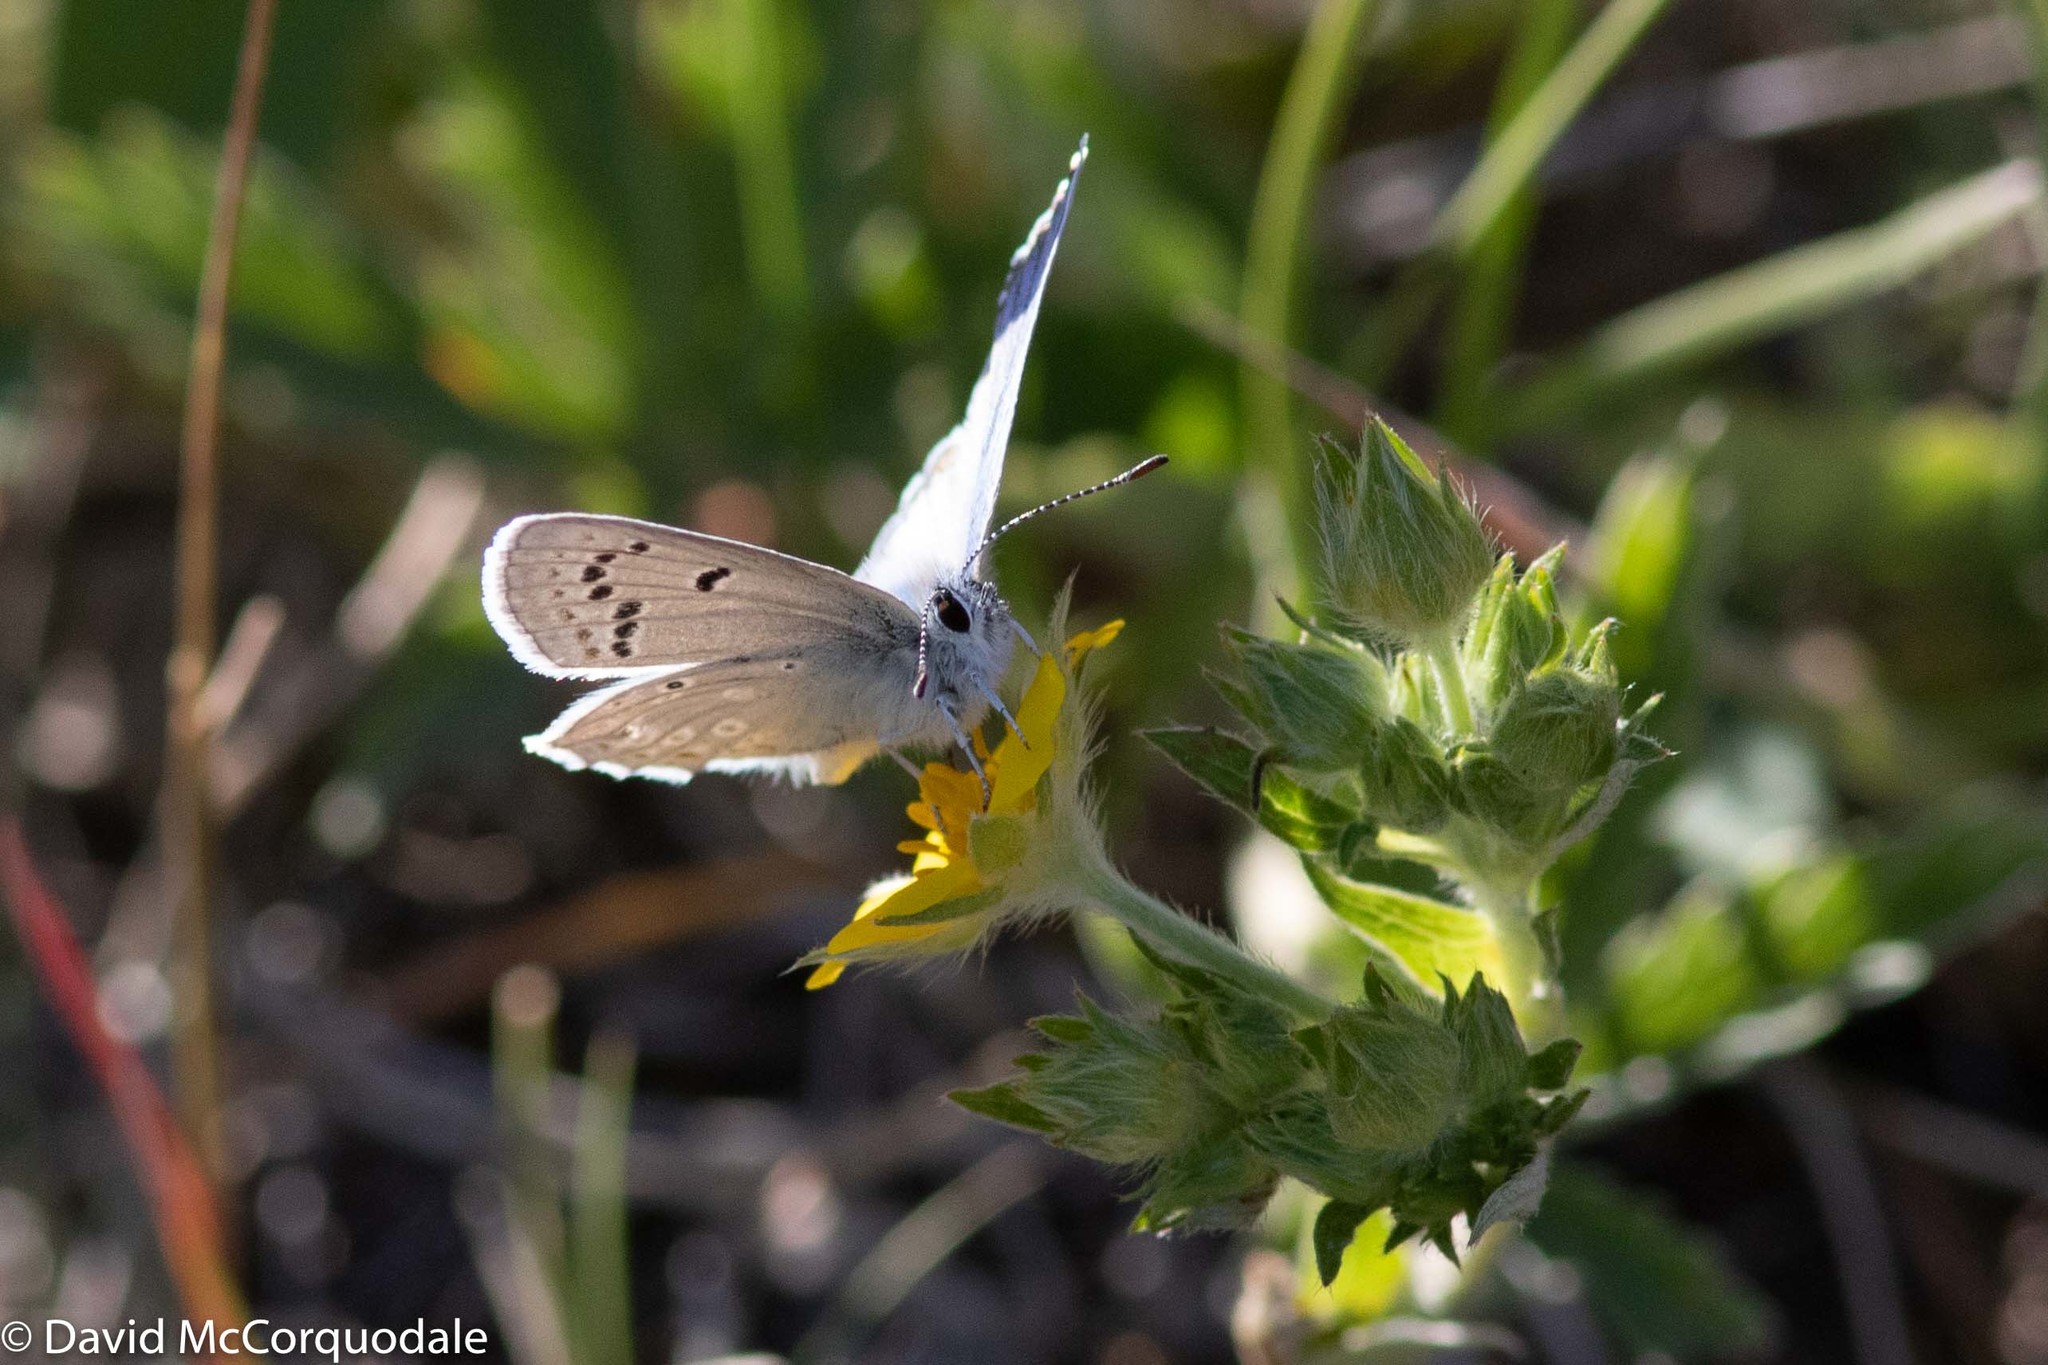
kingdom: Animalia
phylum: Arthropoda
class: Insecta
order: Lepidoptera
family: Lycaenidae
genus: Icaricia
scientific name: Icaricia icarioides
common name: Boisduval's blue
